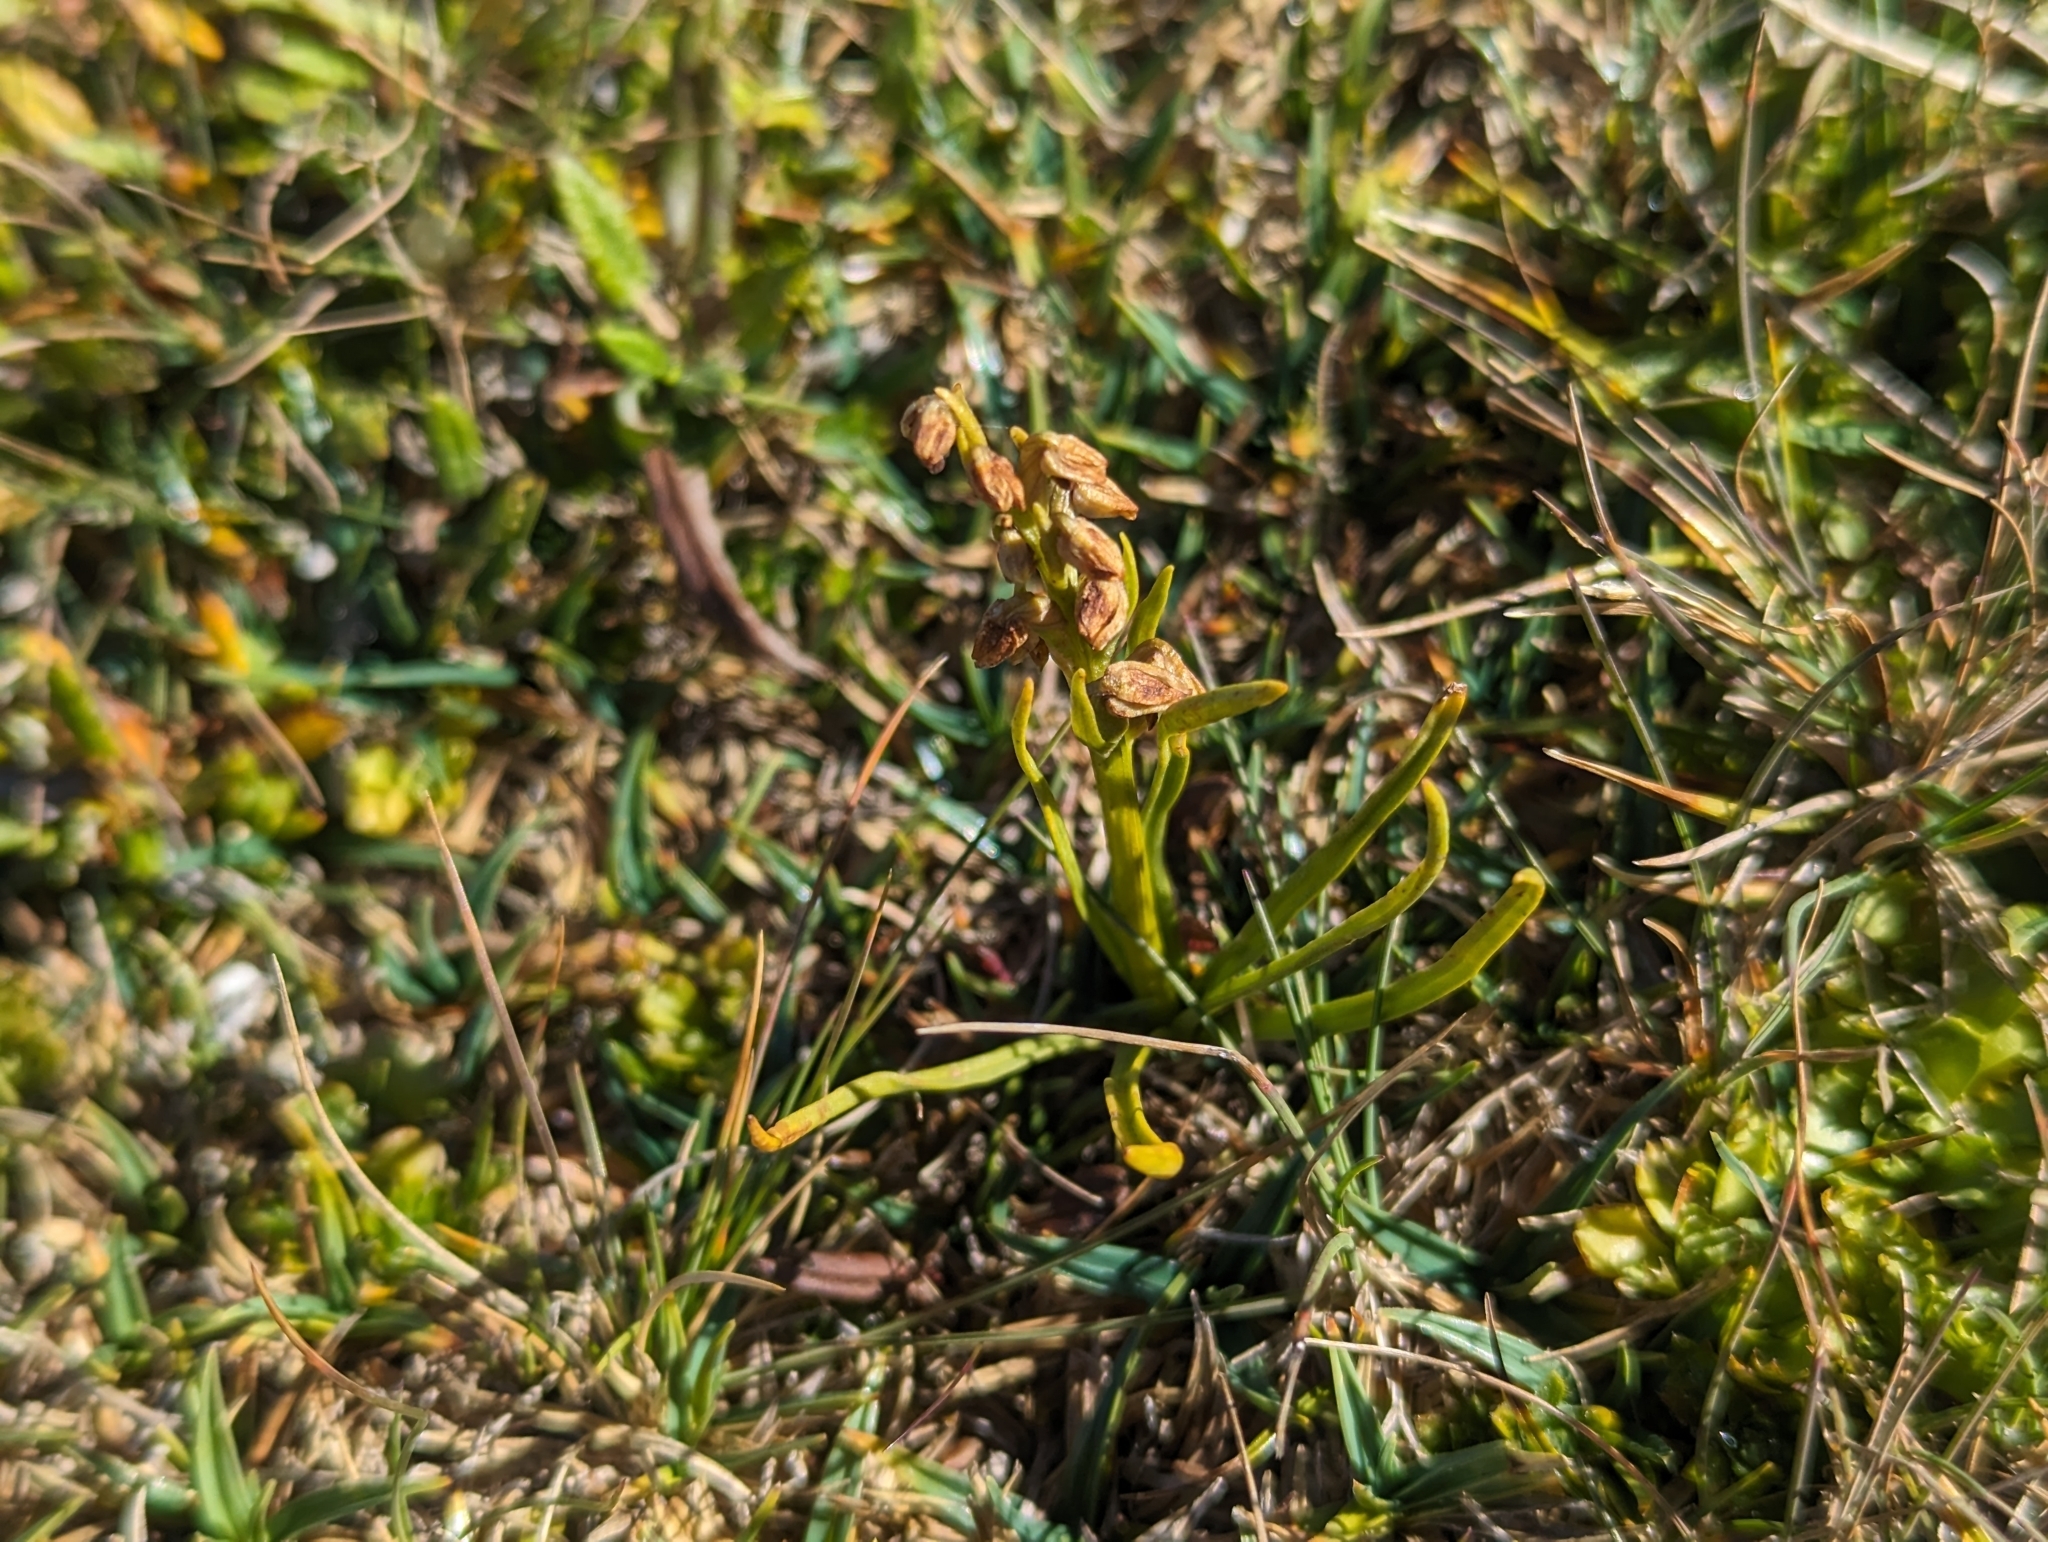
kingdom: Plantae
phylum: Tracheophyta
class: Liliopsida
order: Asparagales
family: Orchidaceae
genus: Chamorchis
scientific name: Chamorchis alpina
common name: Alpine chamorchis
